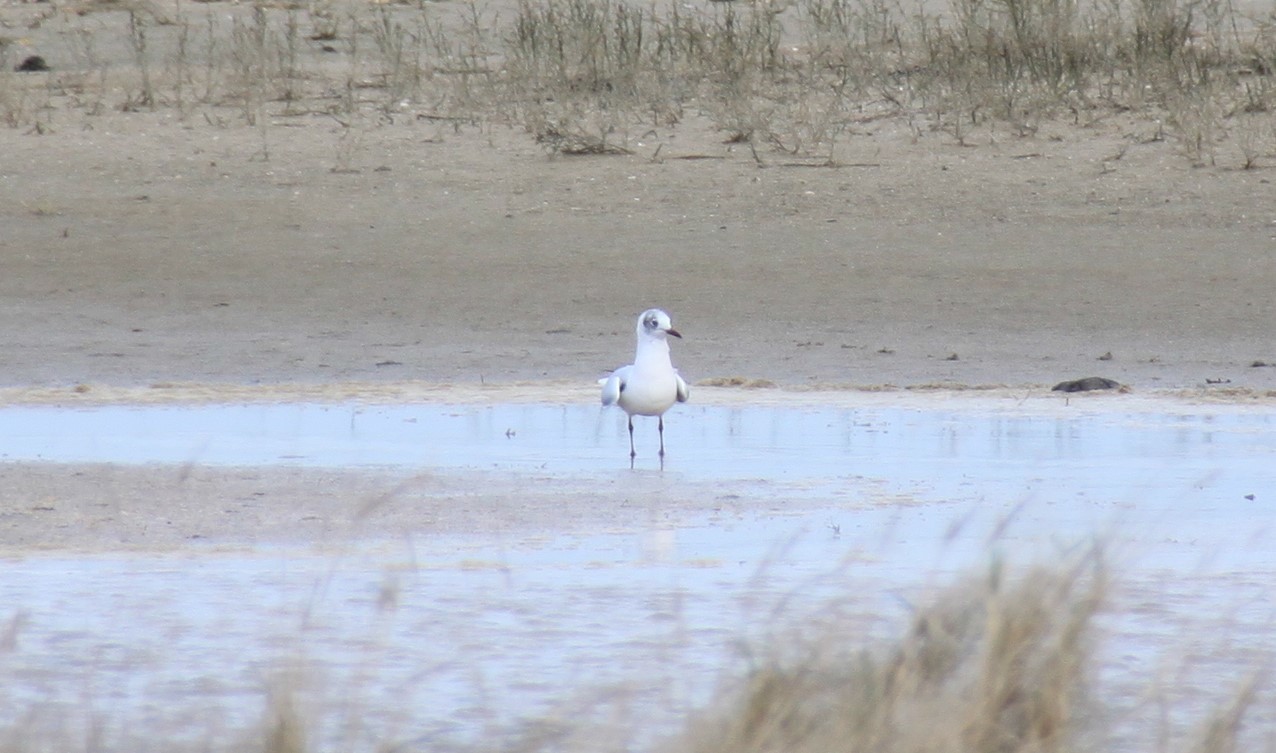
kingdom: Animalia
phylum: Chordata
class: Aves
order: Charadriiformes
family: Laridae
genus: Chroicocephalus
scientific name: Chroicocephalus ridibundus
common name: Black-headed gull
